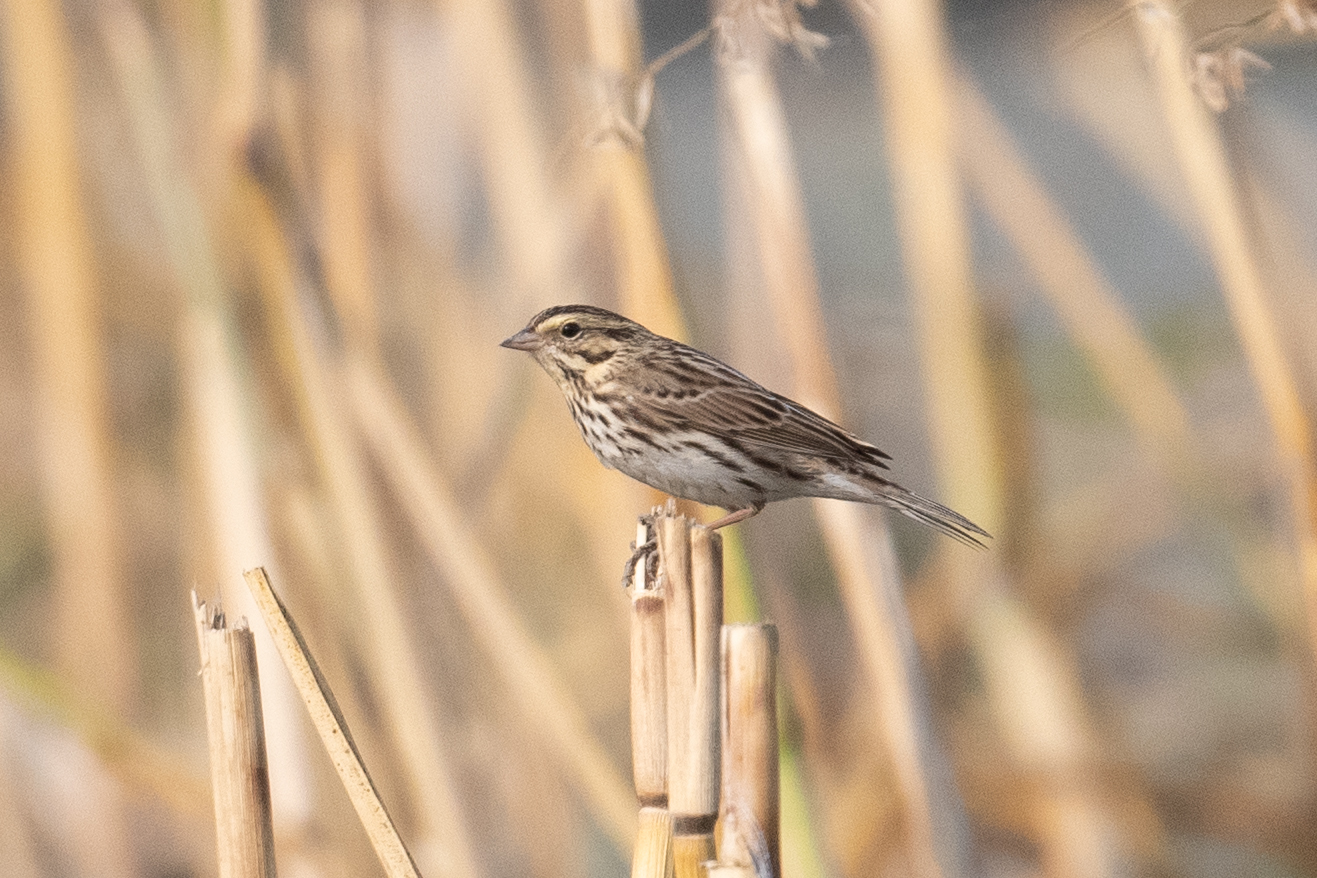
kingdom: Animalia
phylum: Chordata
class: Aves
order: Passeriformes
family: Passerellidae
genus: Passerculus
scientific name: Passerculus sandwichensis
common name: Savannah sparrow
